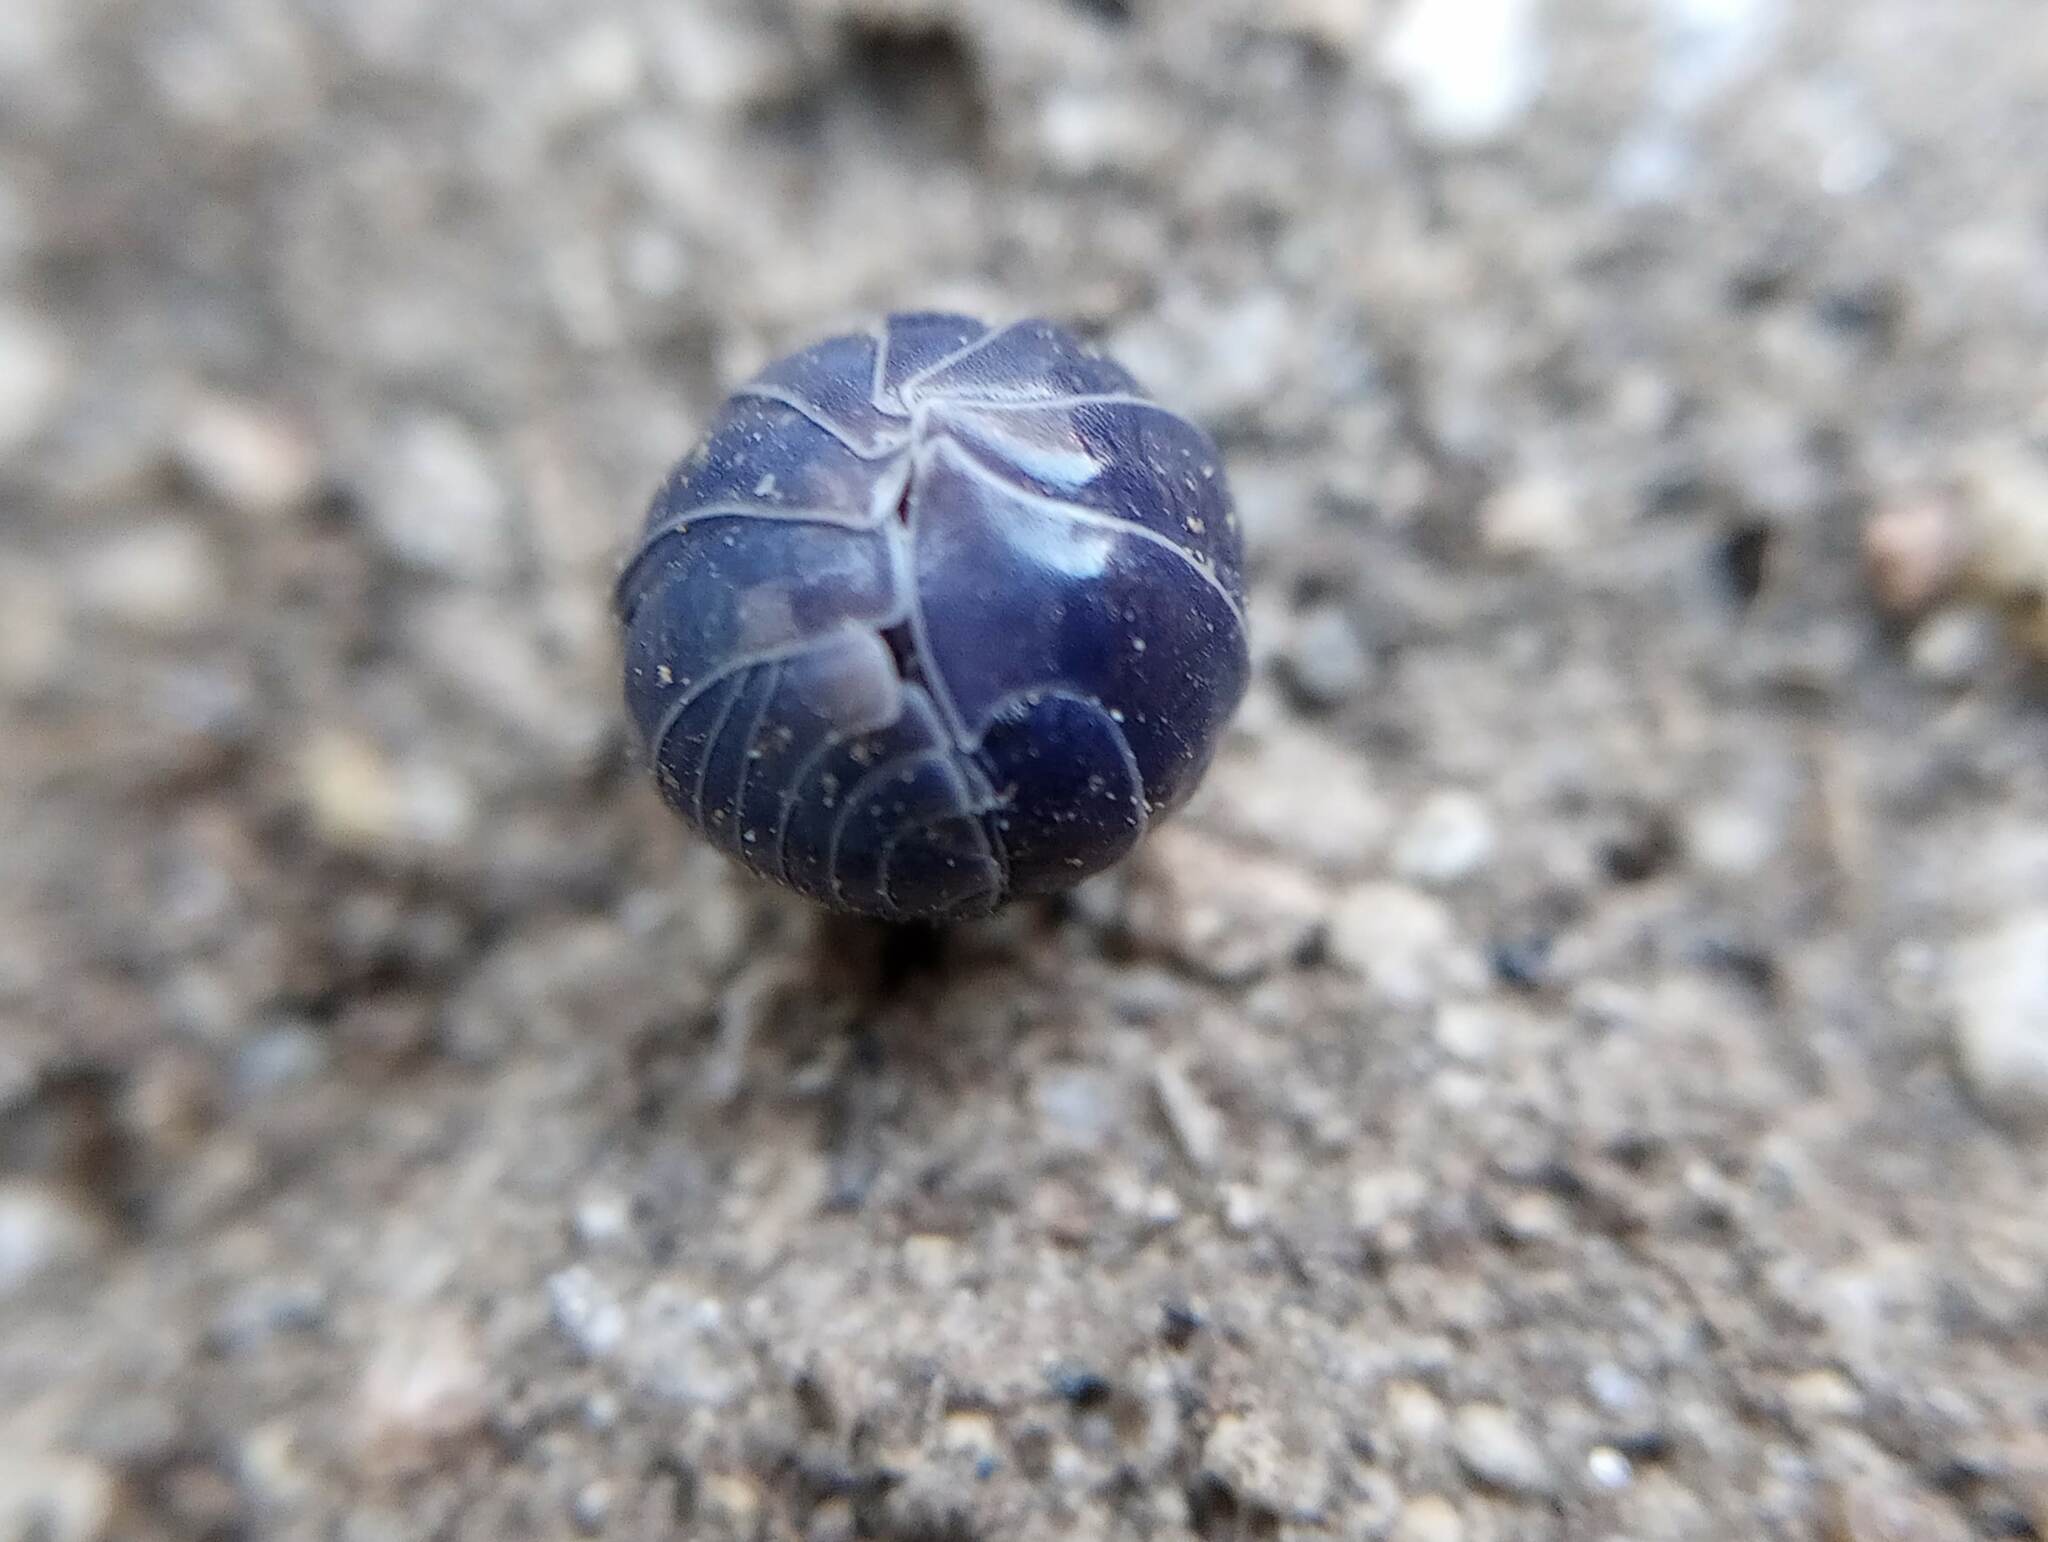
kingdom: Animalia
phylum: Arthropoda
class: Malacostraca
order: Isopoda
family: Armadillidiidae
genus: Armadillidium
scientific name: Armadillidium vulgare
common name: Common pill woodlouse
